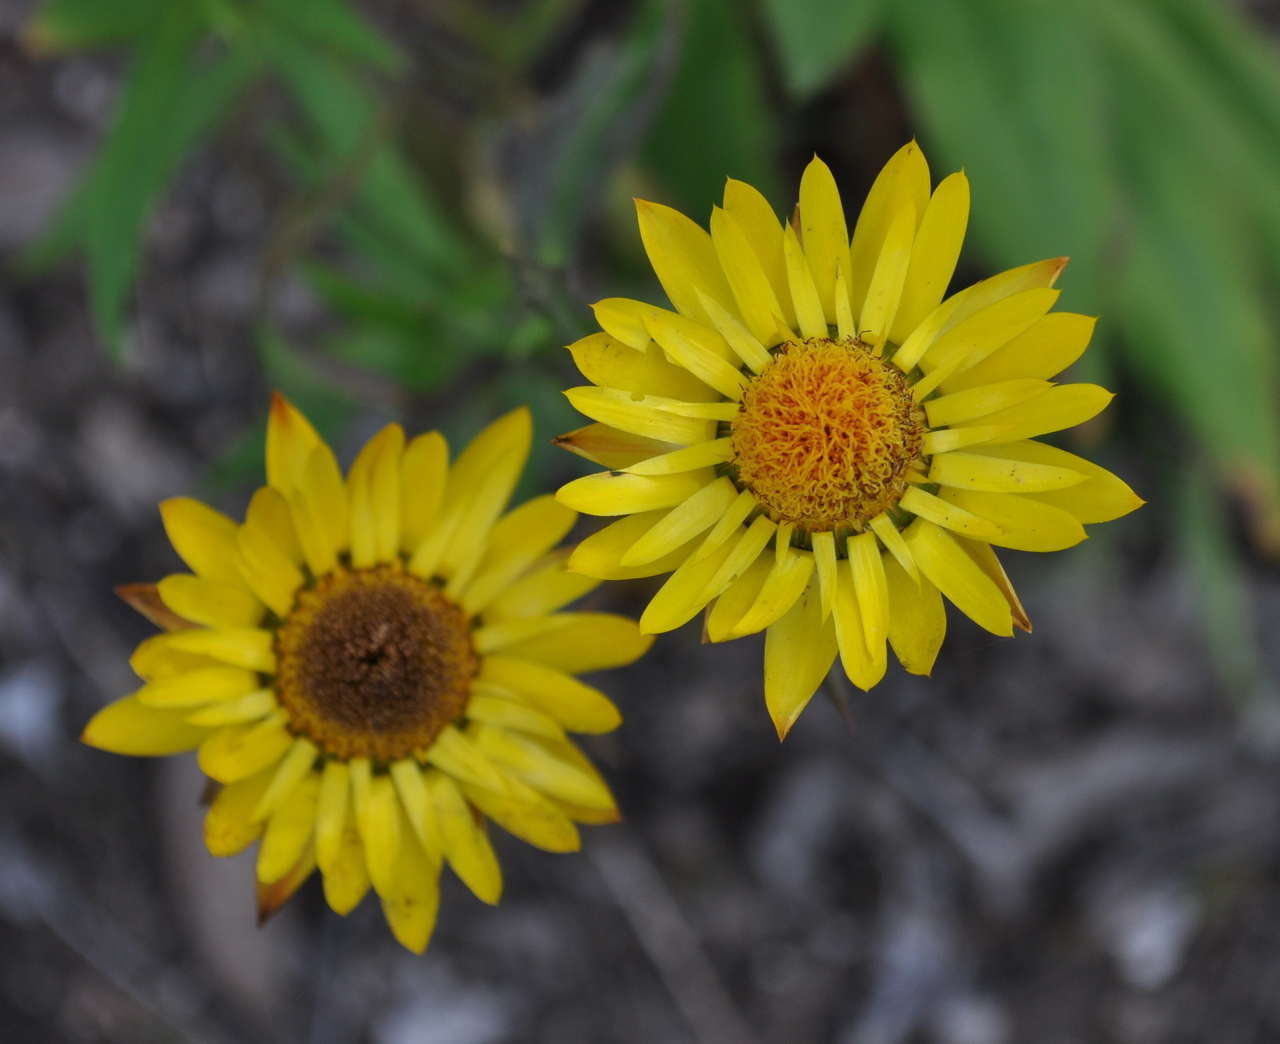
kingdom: Plantae
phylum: Tracheophyta
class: Magnoliopsida
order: Asterales
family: Asteraceae
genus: Xerochrysum
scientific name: Xerochrysum bracteatum
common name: Bracted strawflower
